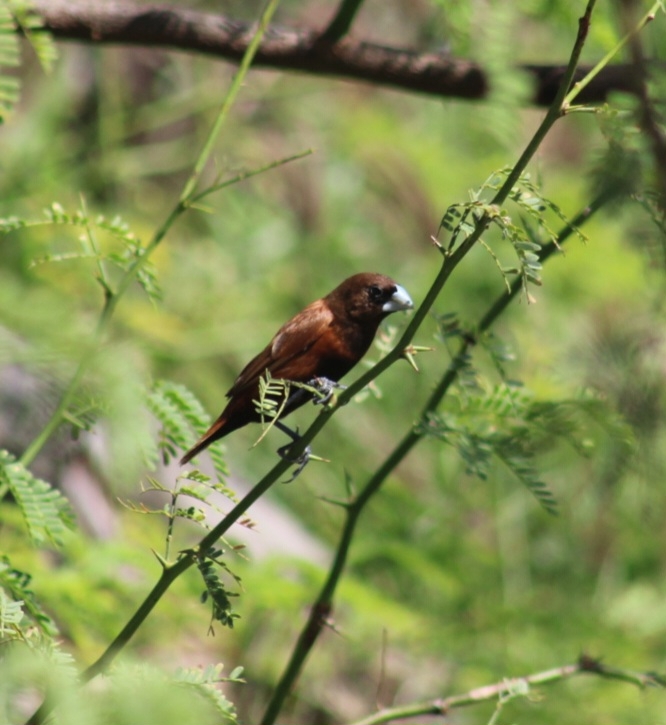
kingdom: Animalia
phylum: Chordata
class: Aves
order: Passeriformes
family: Estrildidae
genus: Lonchura
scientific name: Lonchura atricapilla
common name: Chestnut munia
